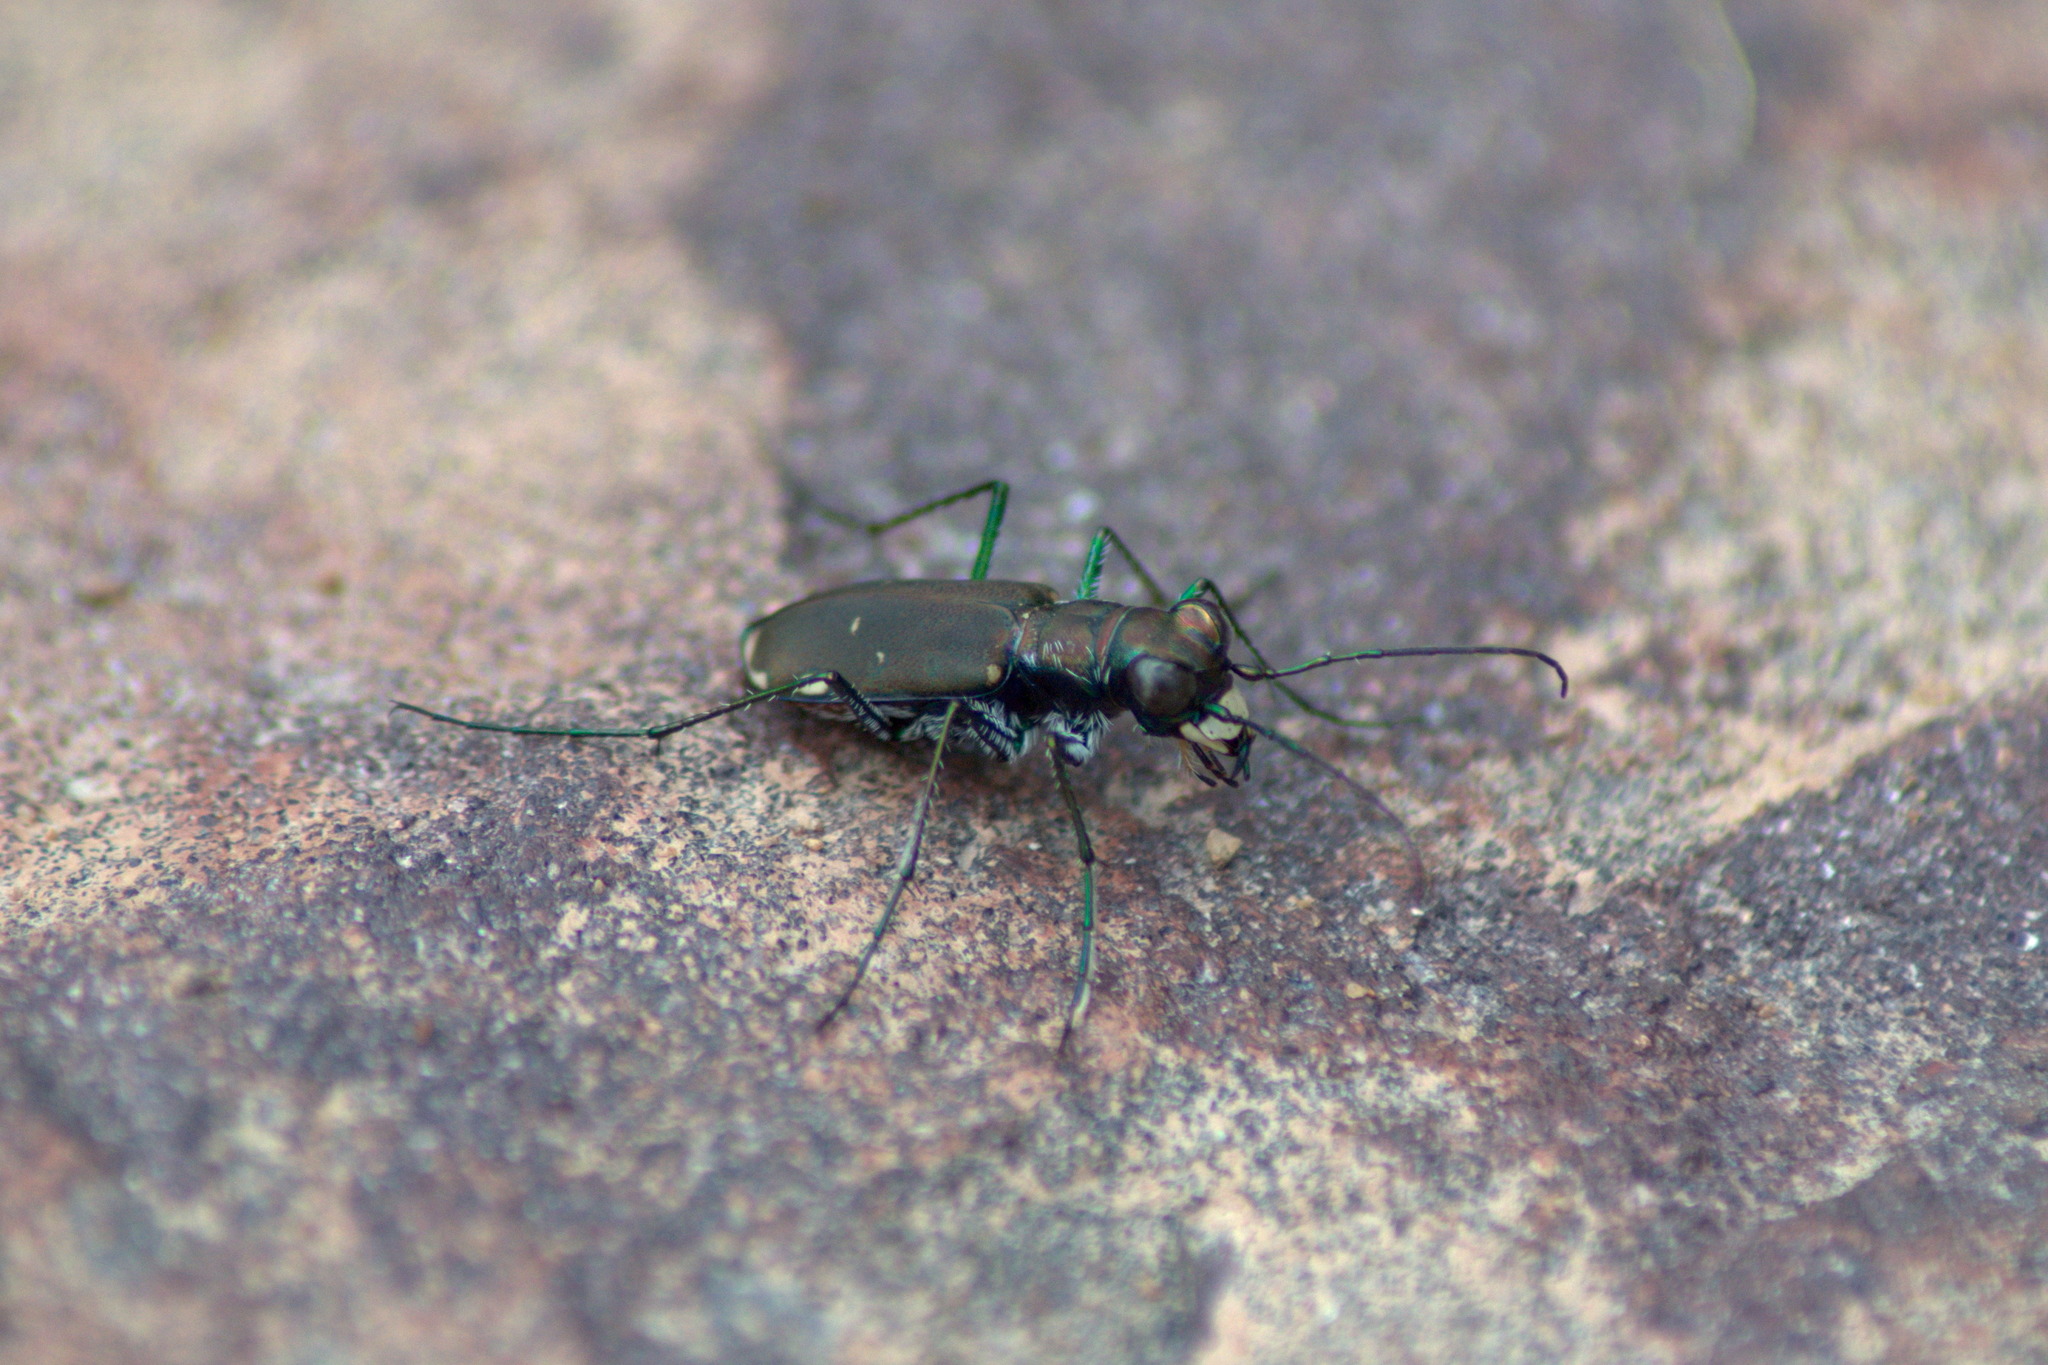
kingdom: Animalia
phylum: Arthropoda
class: Insecta
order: Coleoptera
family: Carabidae
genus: Cicindela
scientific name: Cicindela rufiventris
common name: Eastern red-bellied tiger beetle
